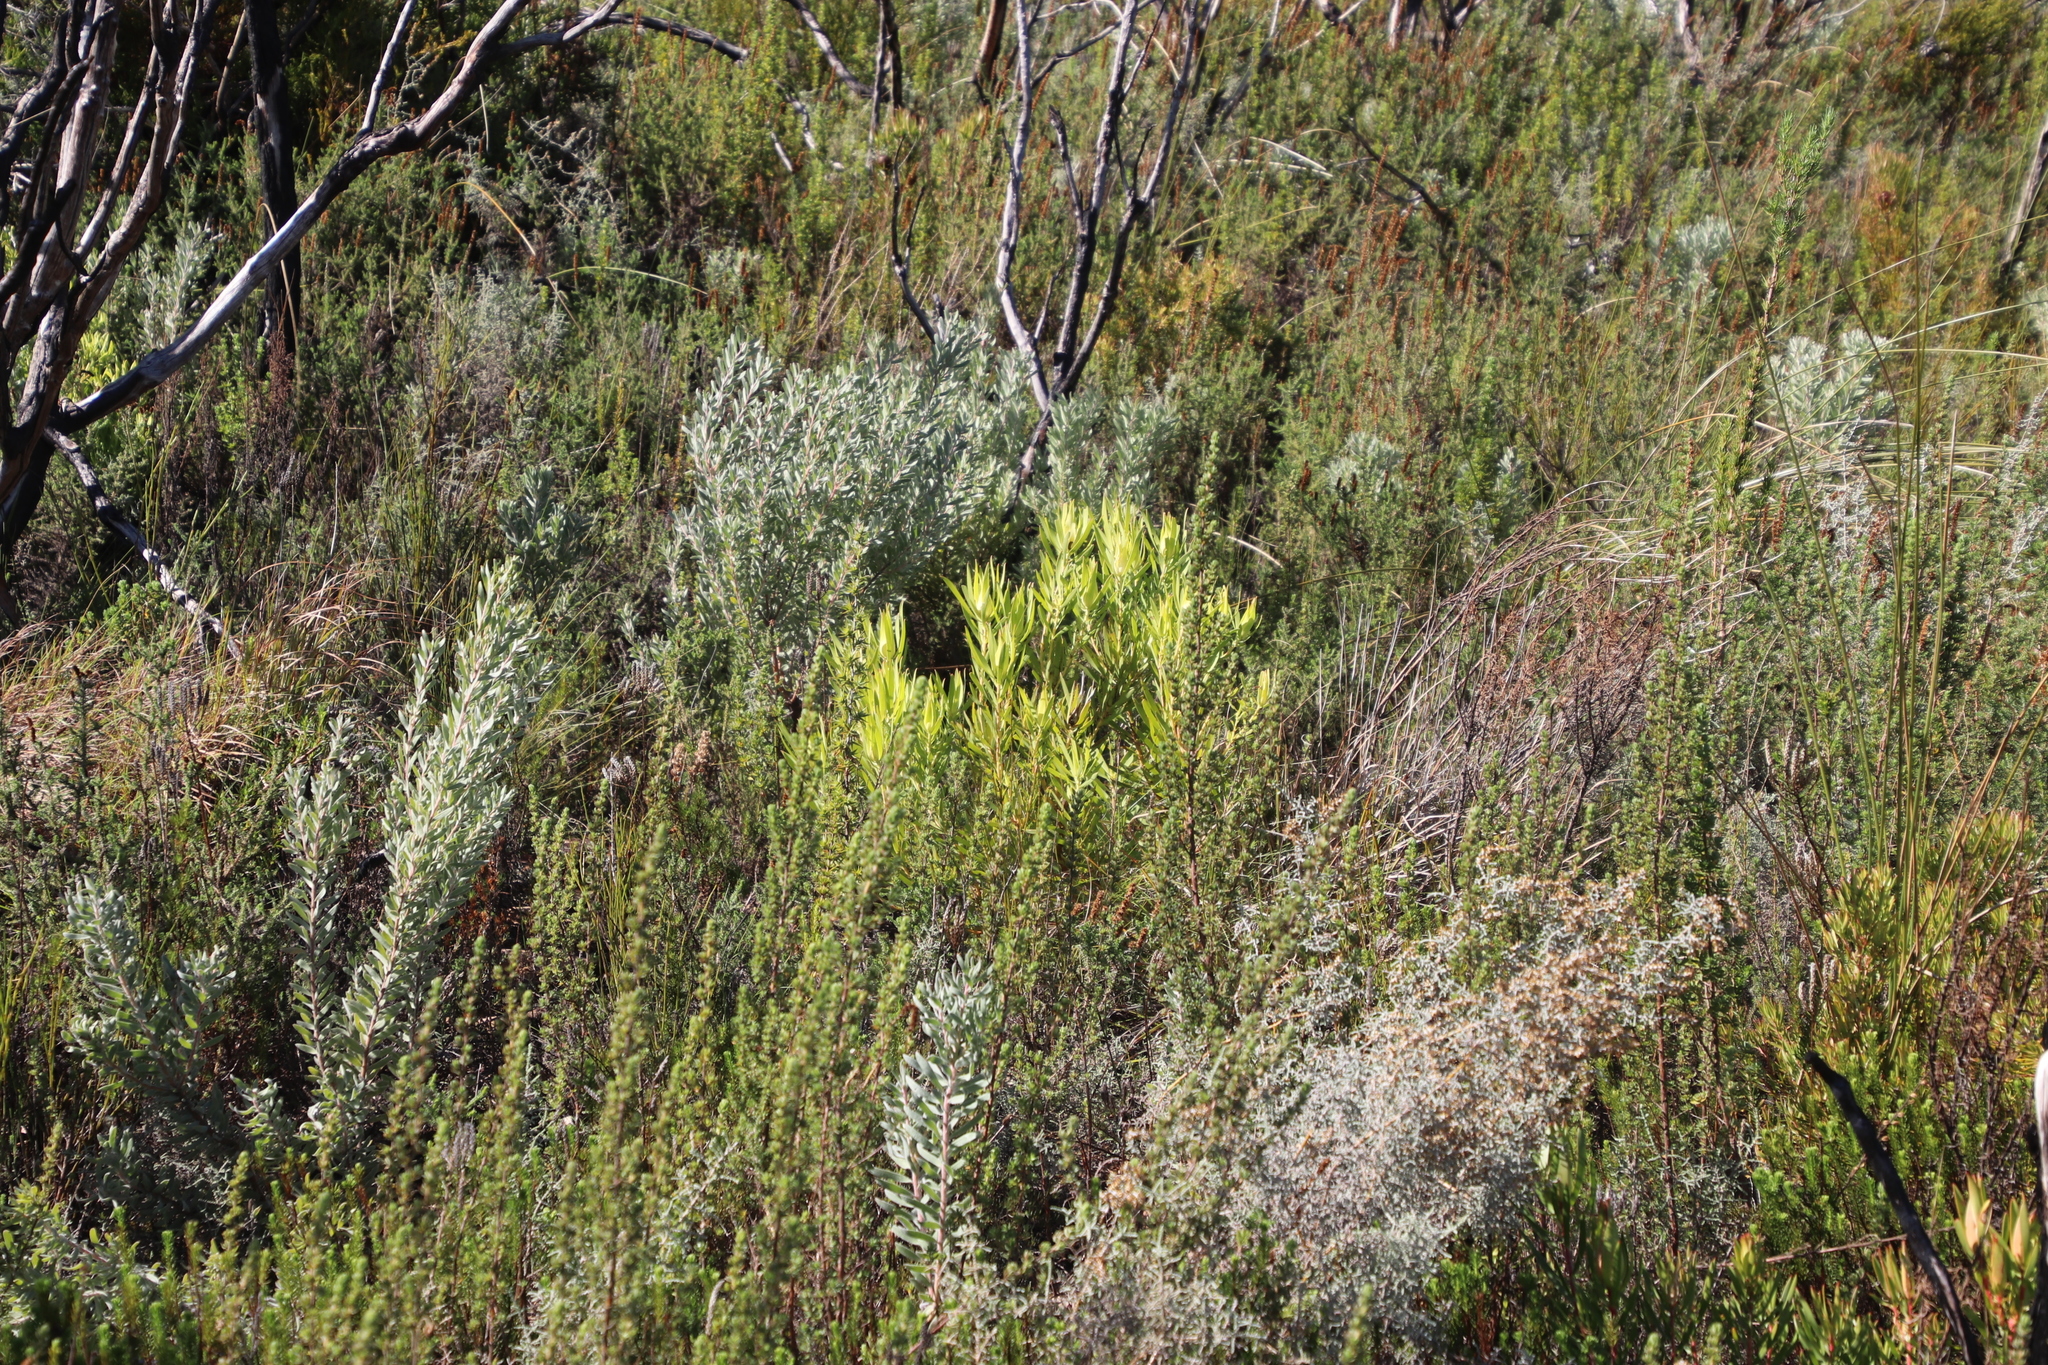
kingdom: Plantae
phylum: Tracheophyta
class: Magnoliopsida
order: Proteales
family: Proteaceae
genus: Leucadendron
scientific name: Leucadendron salignum
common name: Common sunshine conebush
